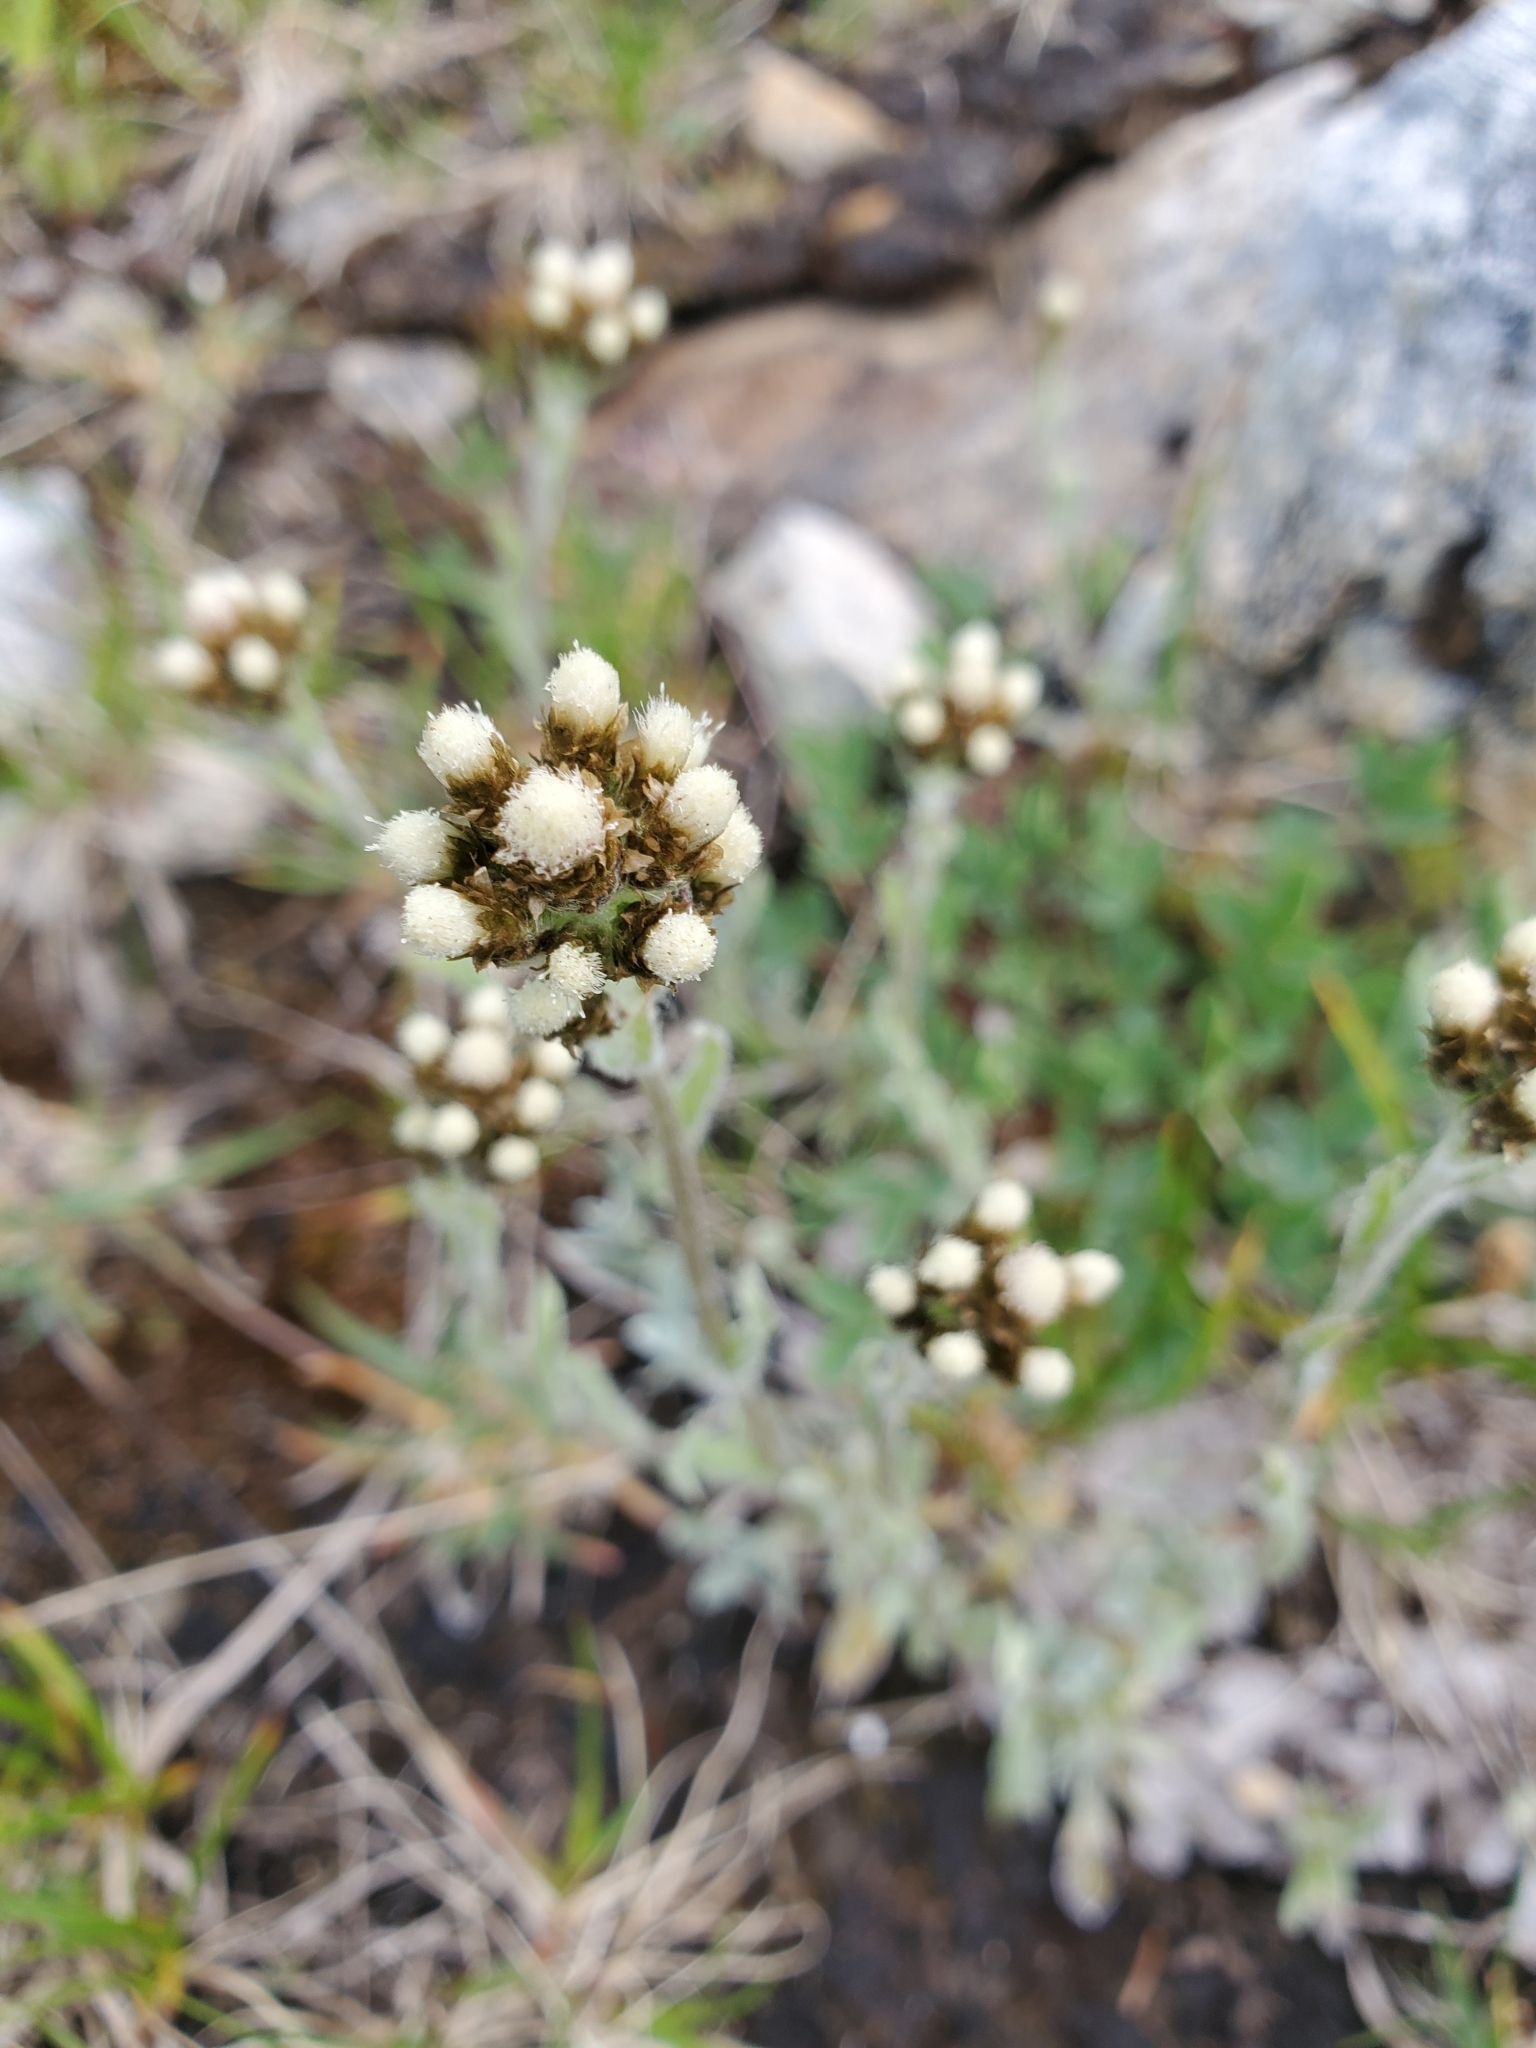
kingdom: Plantae
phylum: Tracheophyta
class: Magnoliopsida
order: Asterales
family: Asteraceae
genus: Antennaria
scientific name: Antennaria media
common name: Rocky mountain pussytoes
